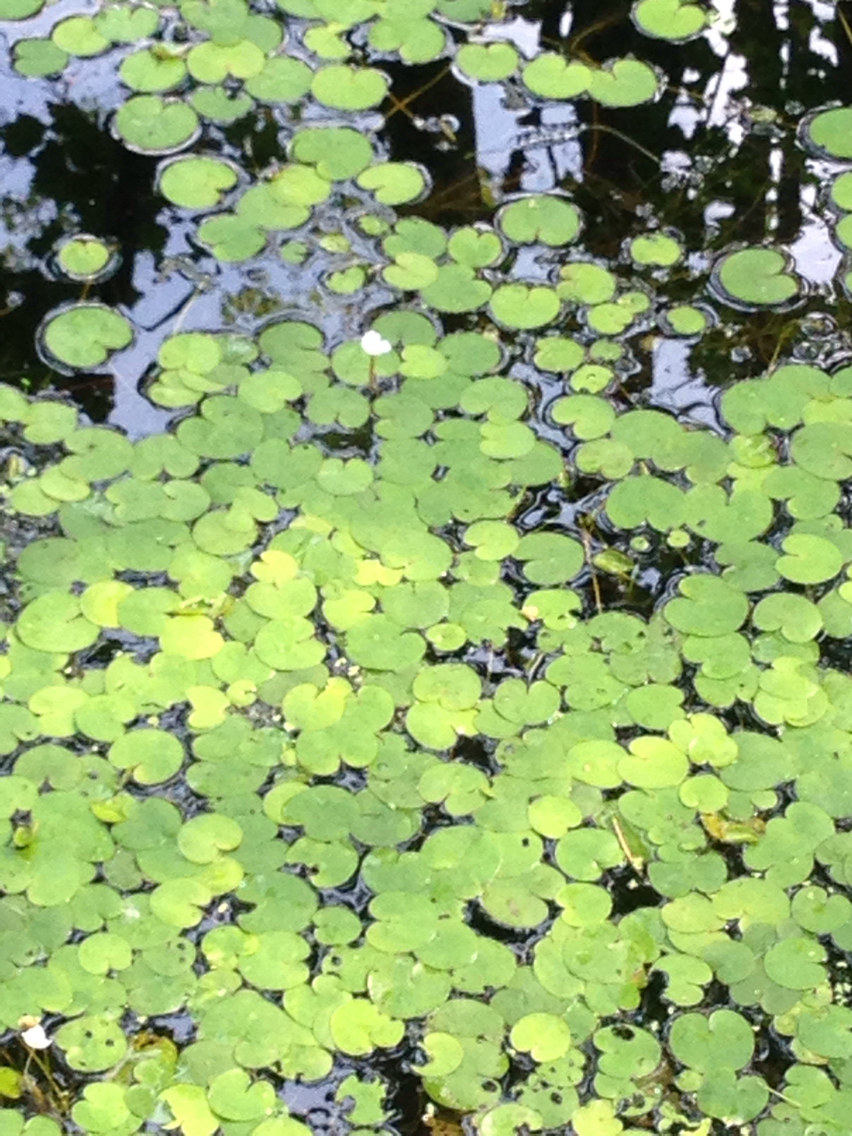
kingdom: Plantae
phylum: Tracheophyta
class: Liliopsida
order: Alismatales
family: Hydrocharitaceae
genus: Hydrocharis
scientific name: Hydrocharis morsus-ranae
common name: Frogbit
